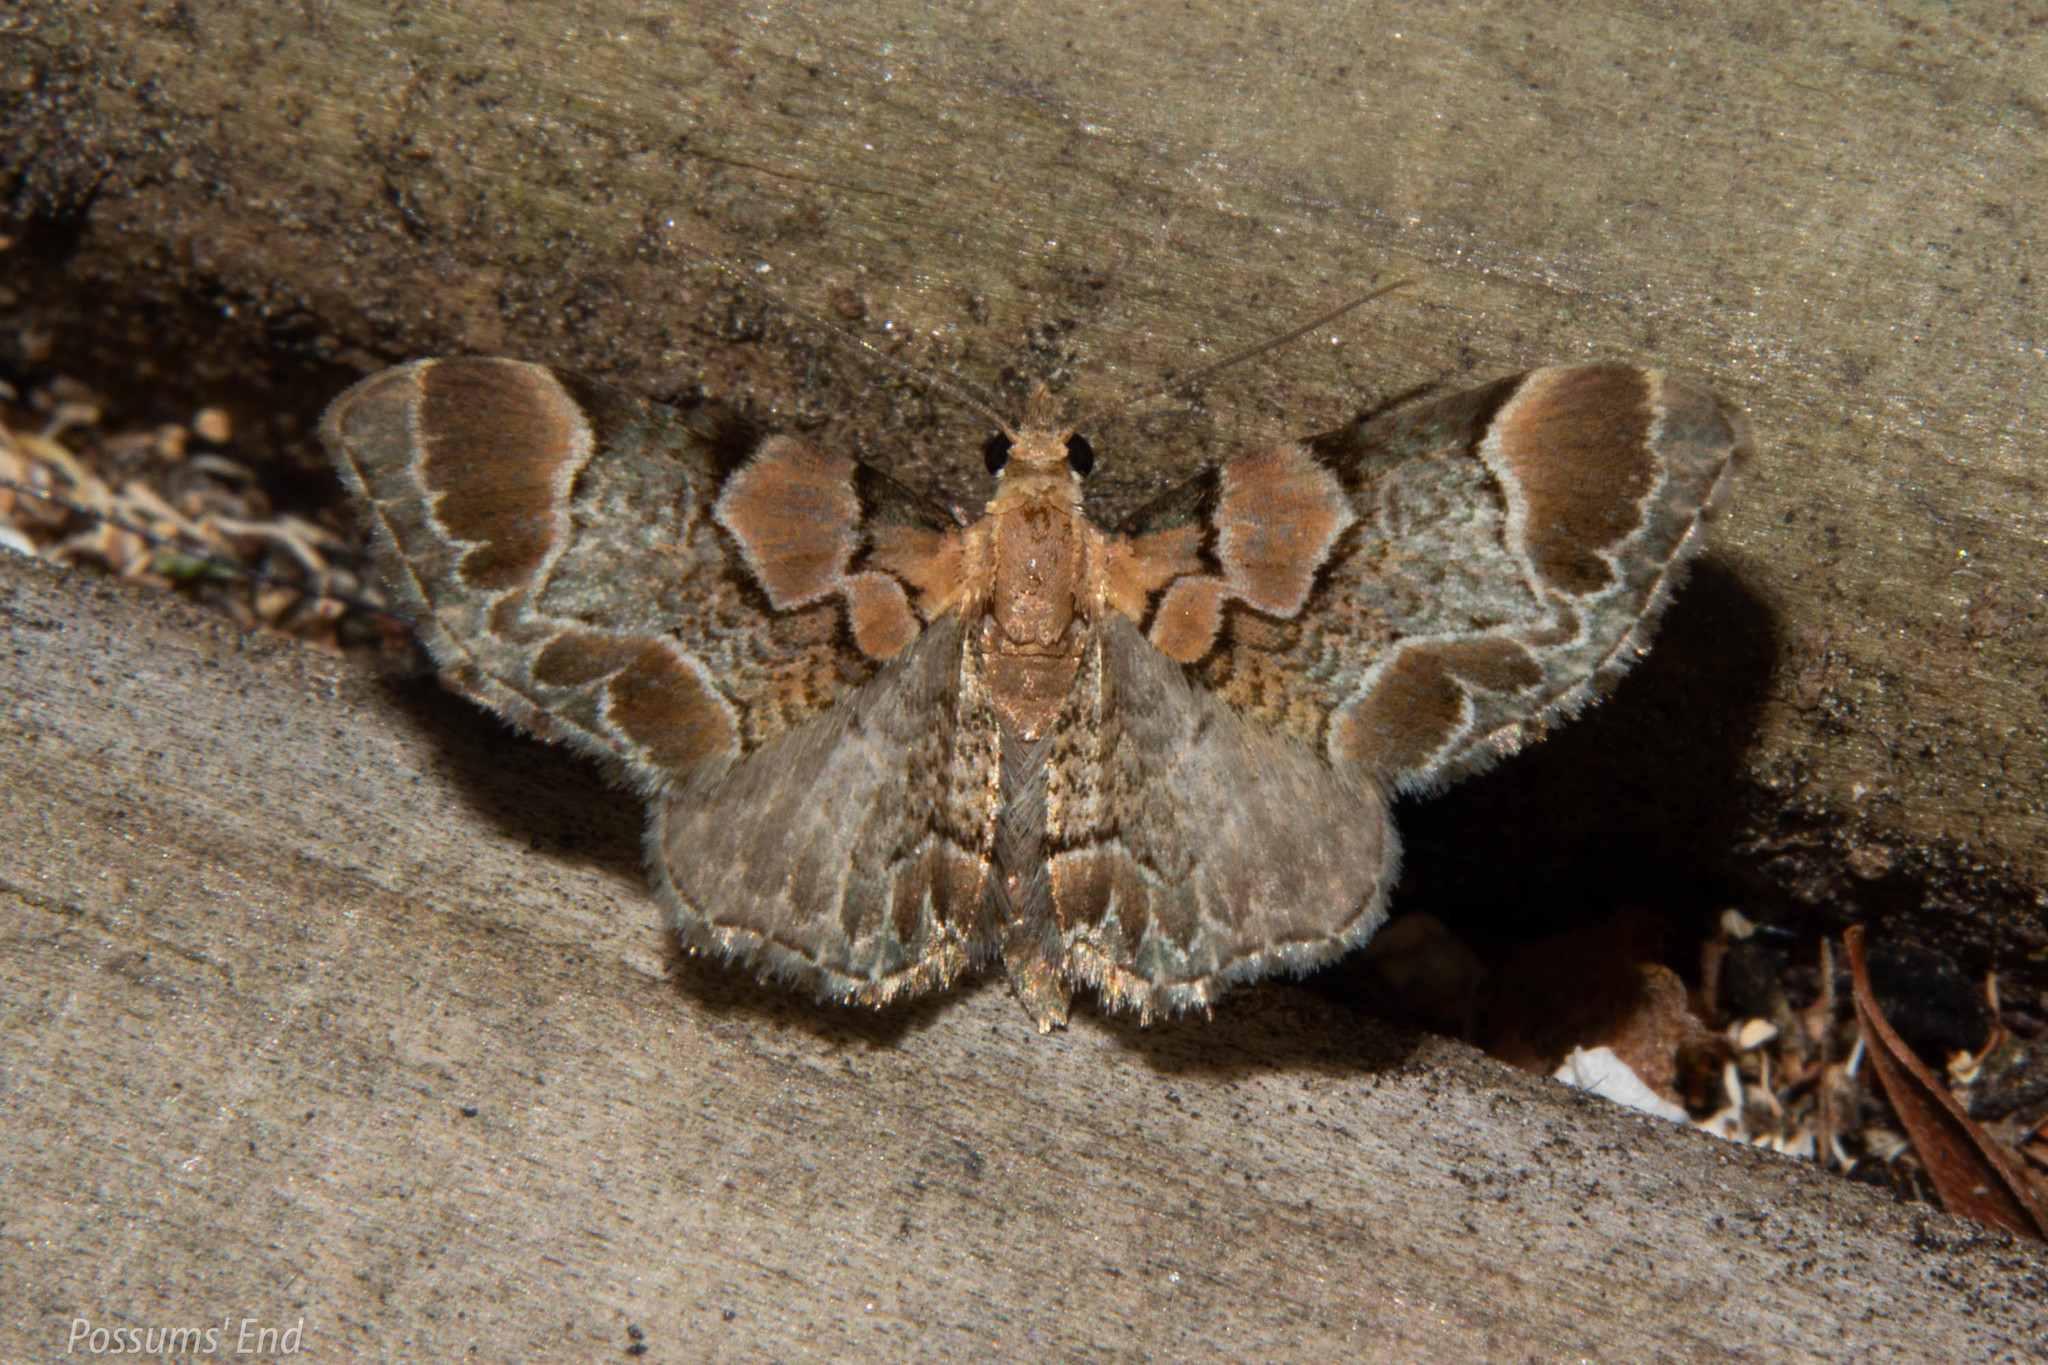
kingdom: Animalia
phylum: Arthropoda
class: Insecta
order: Lepidoptera
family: Geometridae
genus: Chloroclystis
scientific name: Chloroclystis
